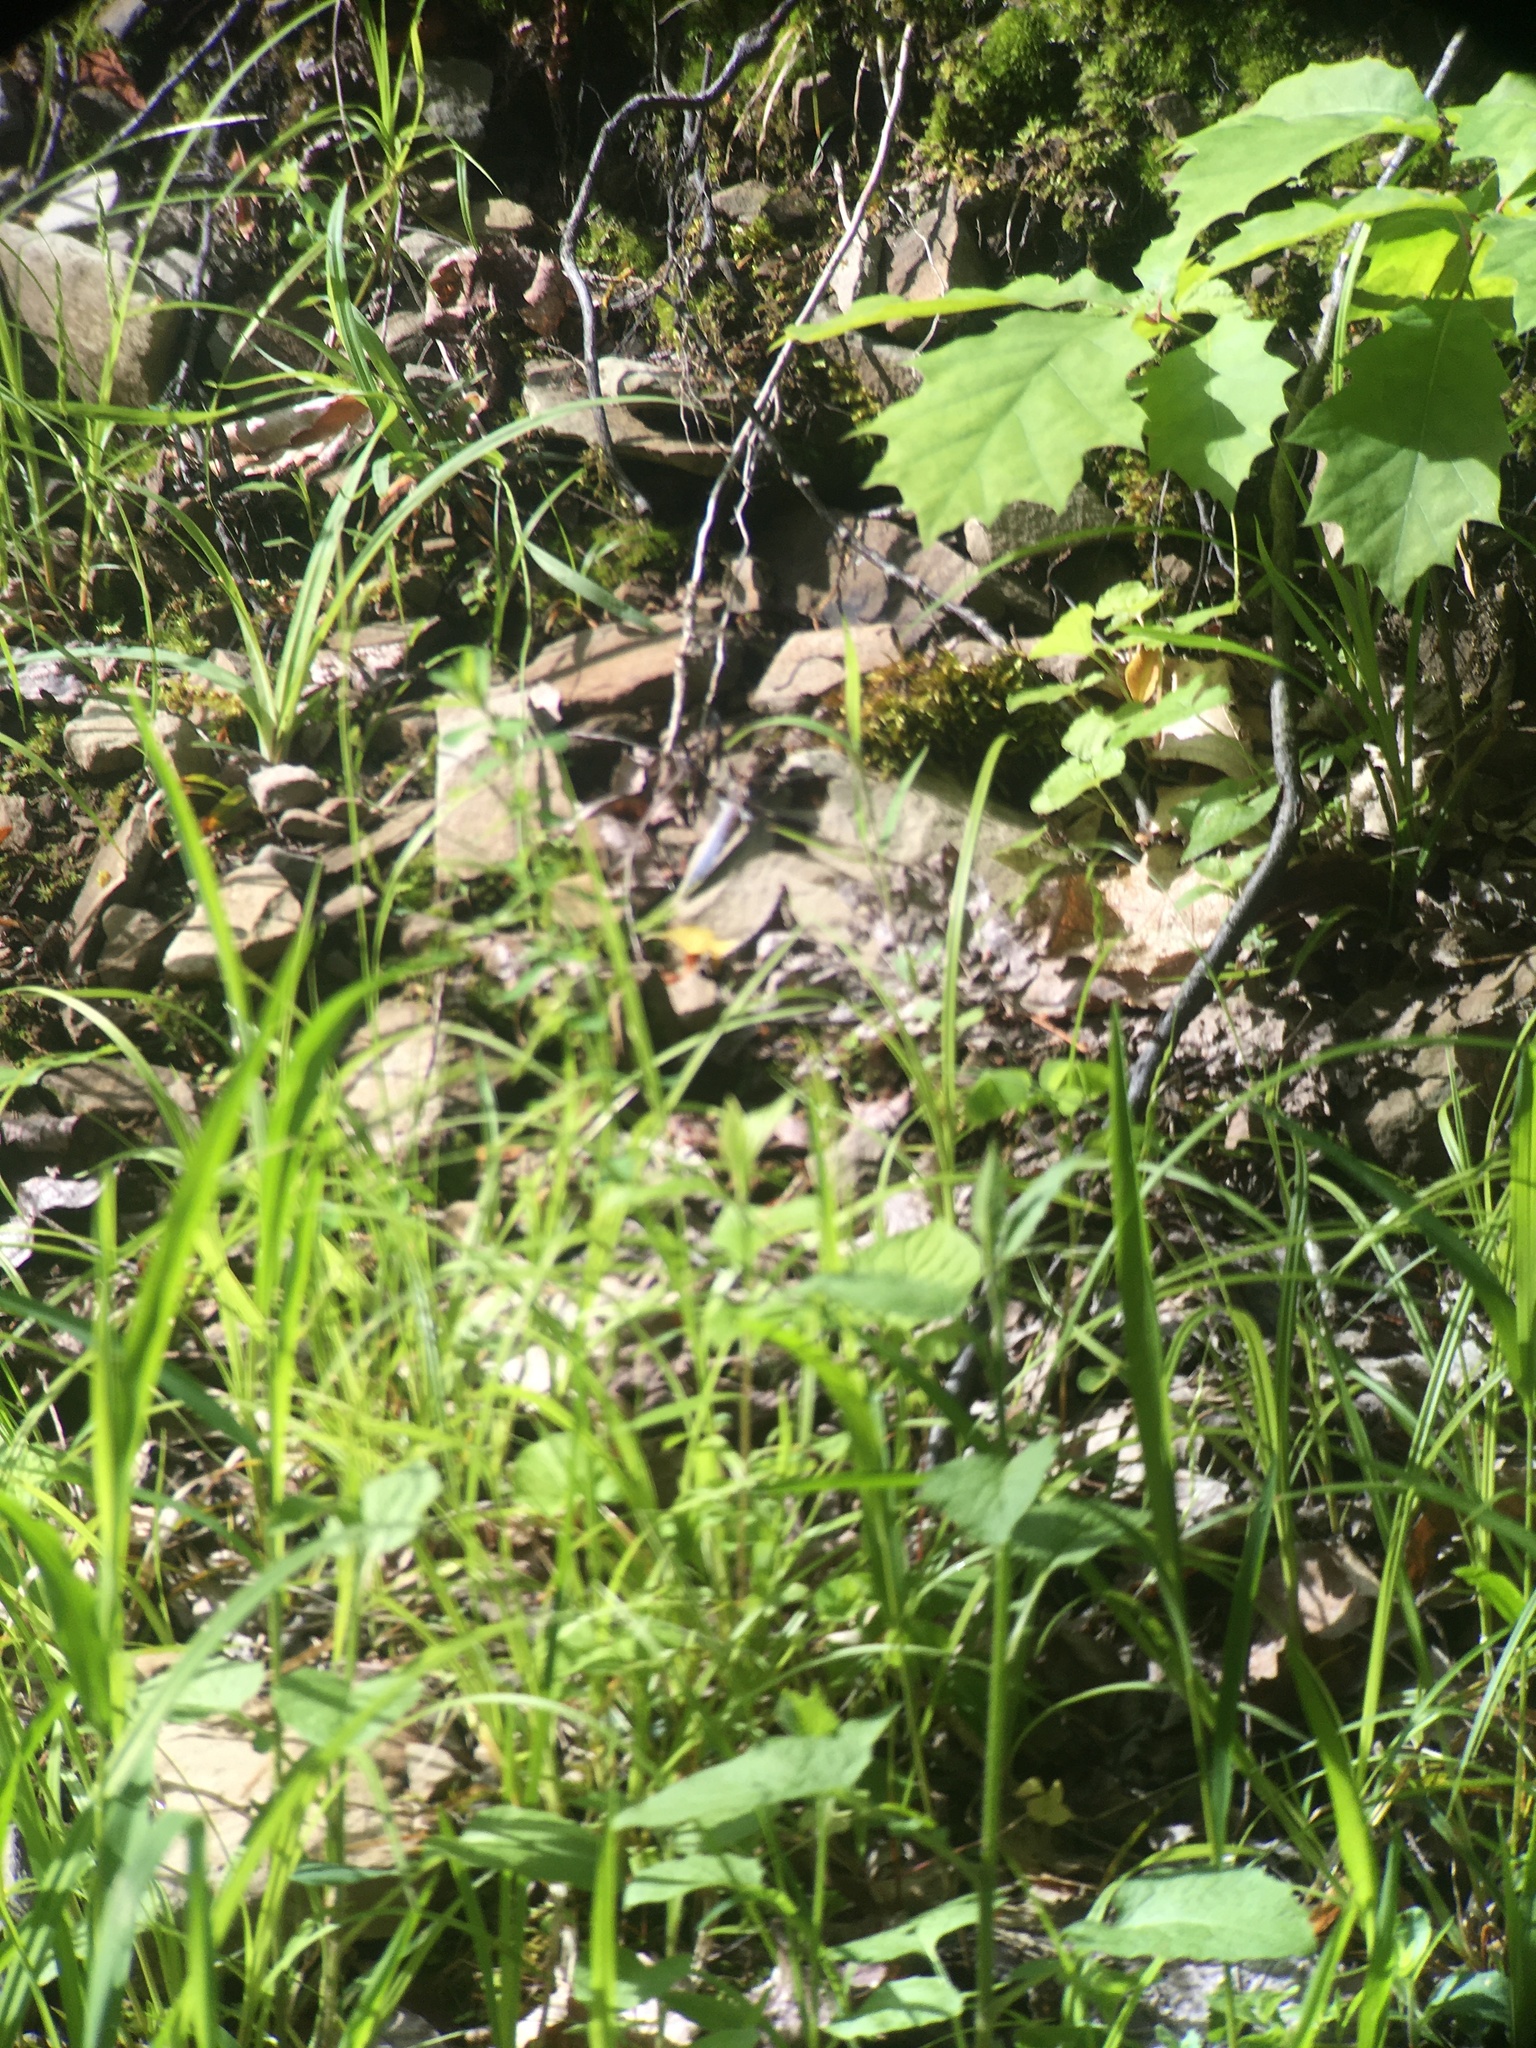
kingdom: Animalia
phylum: Arthropoda
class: Insecta
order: Odonata
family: Libellulidae
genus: Plathemis
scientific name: Plathemis lydia
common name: Common whitetail
